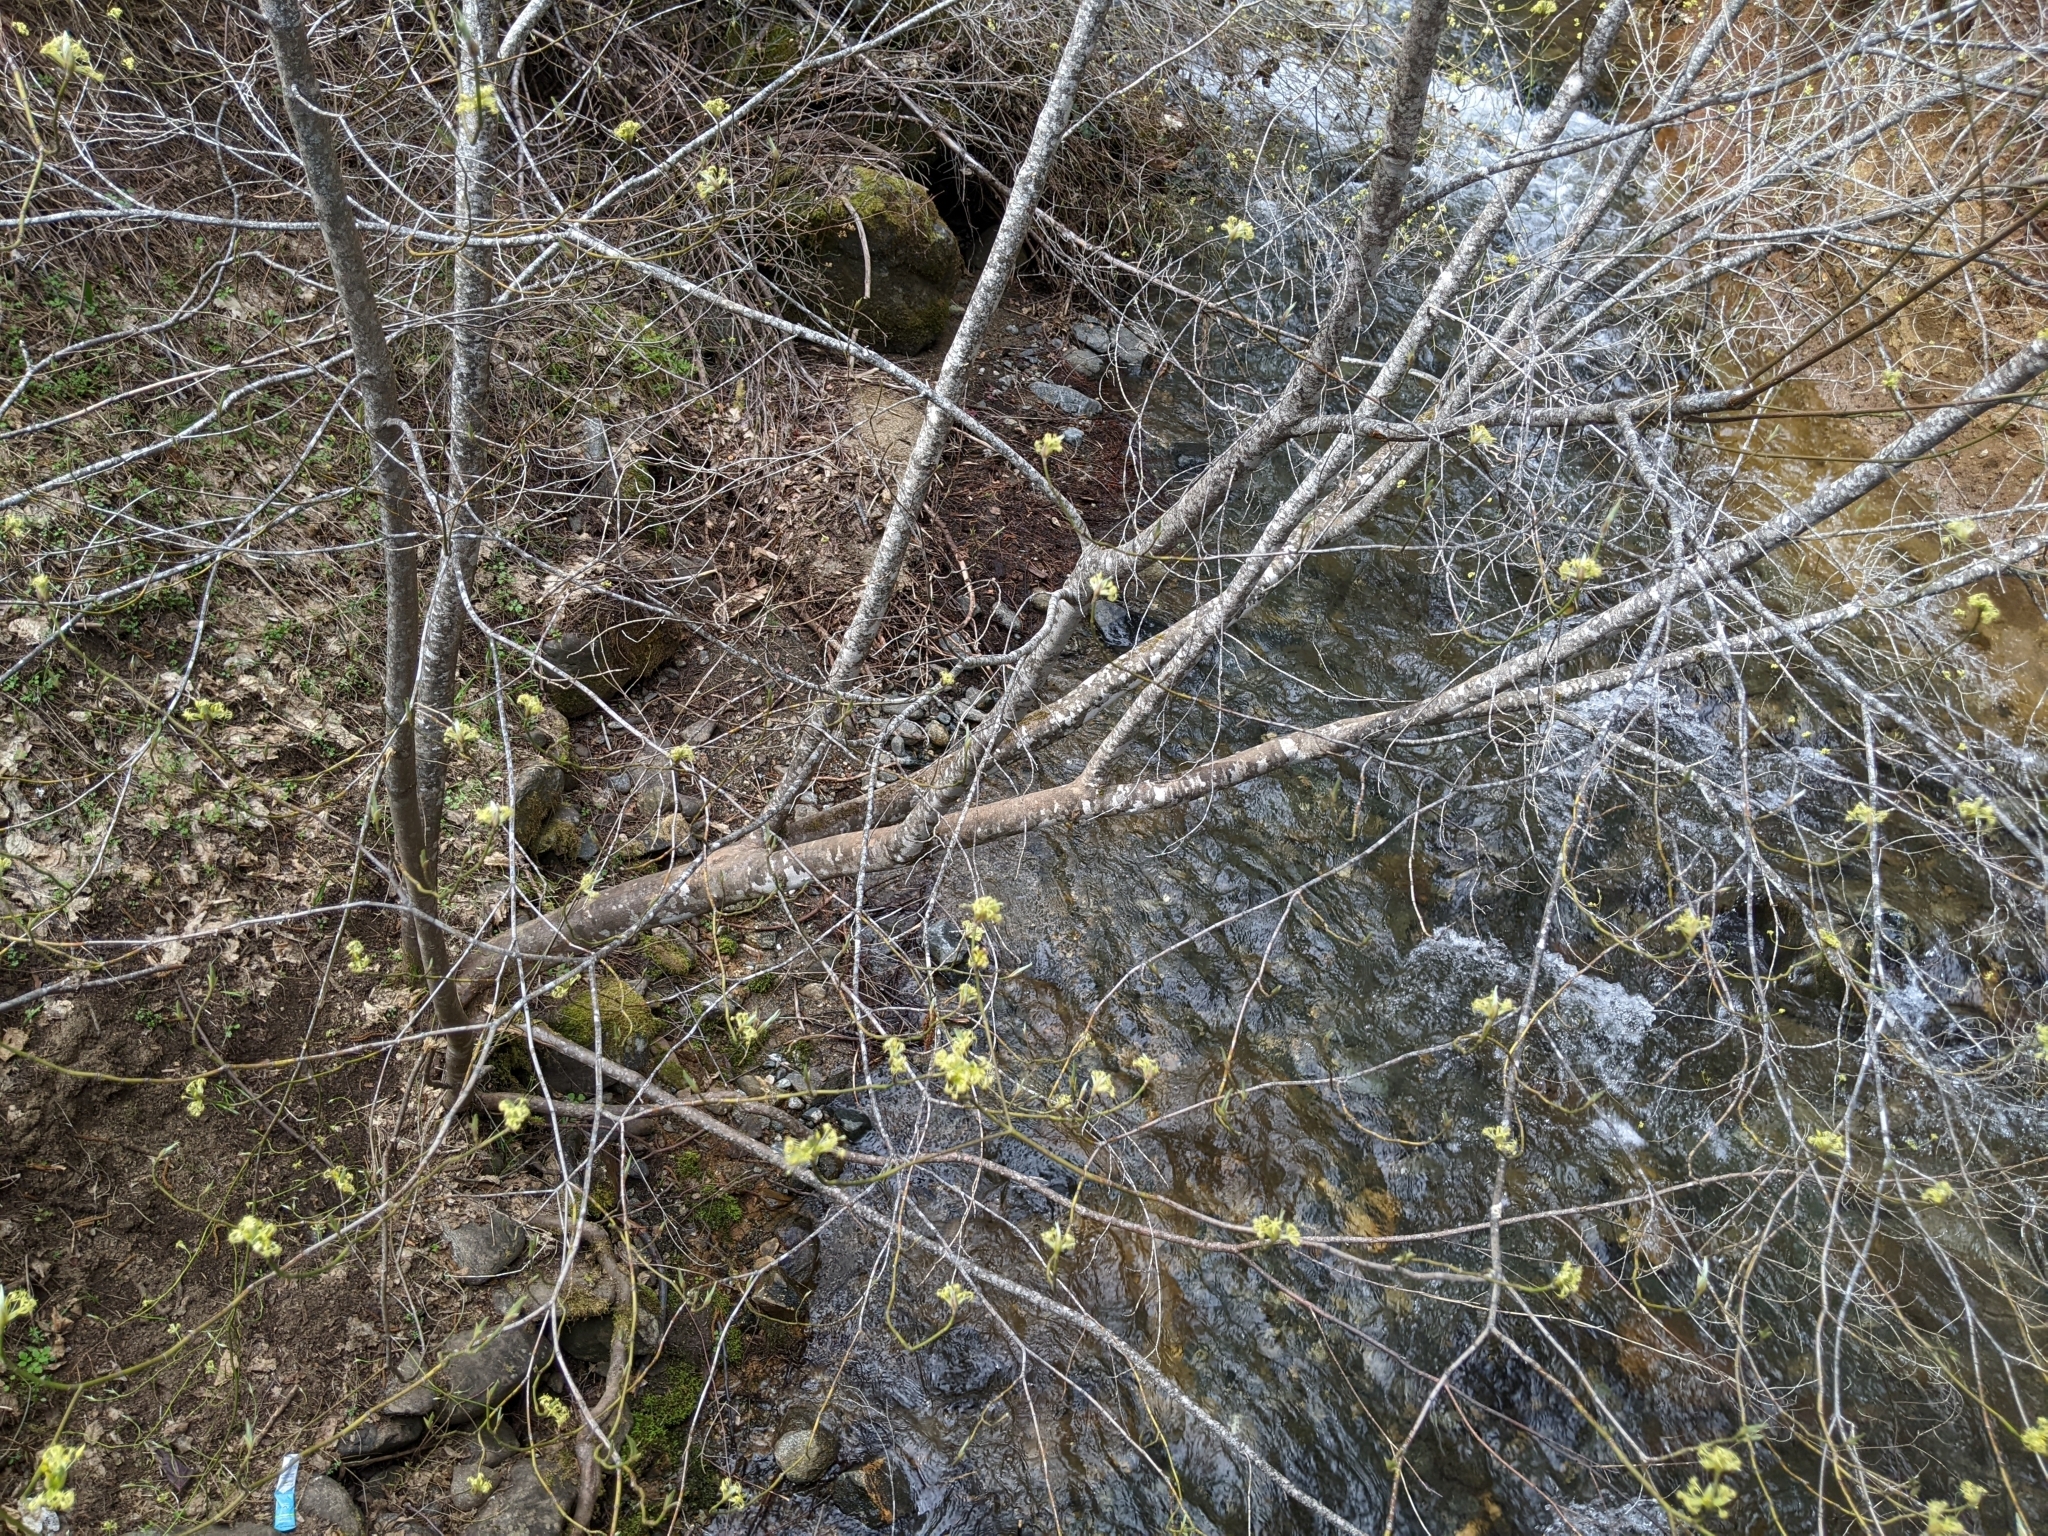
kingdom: Plantae
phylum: Tracheophyta
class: Magnoliopsida
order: Cornales
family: Cornaceae
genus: Cornus
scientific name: Cornus sessilis
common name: Blackfruit dogwood
